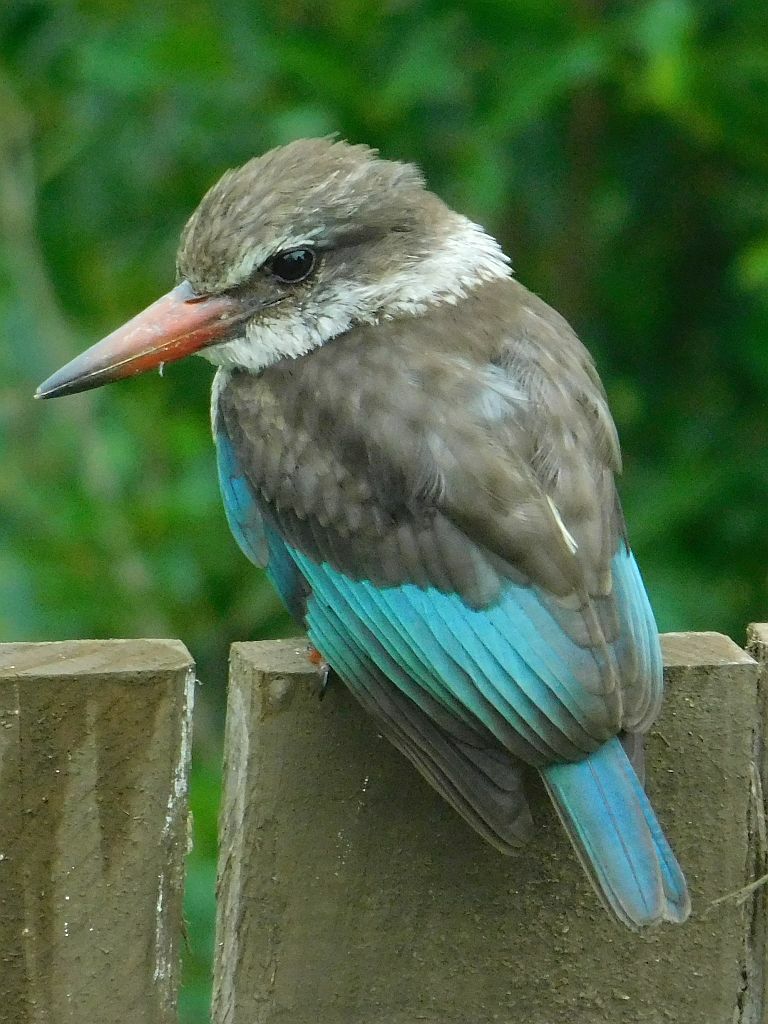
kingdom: Animalia
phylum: Chordata
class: Aves
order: Coraciiformes
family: Alcedinidae
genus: Halcyon
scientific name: Halcyon albiventris
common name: Brown-hooded kingfisher
